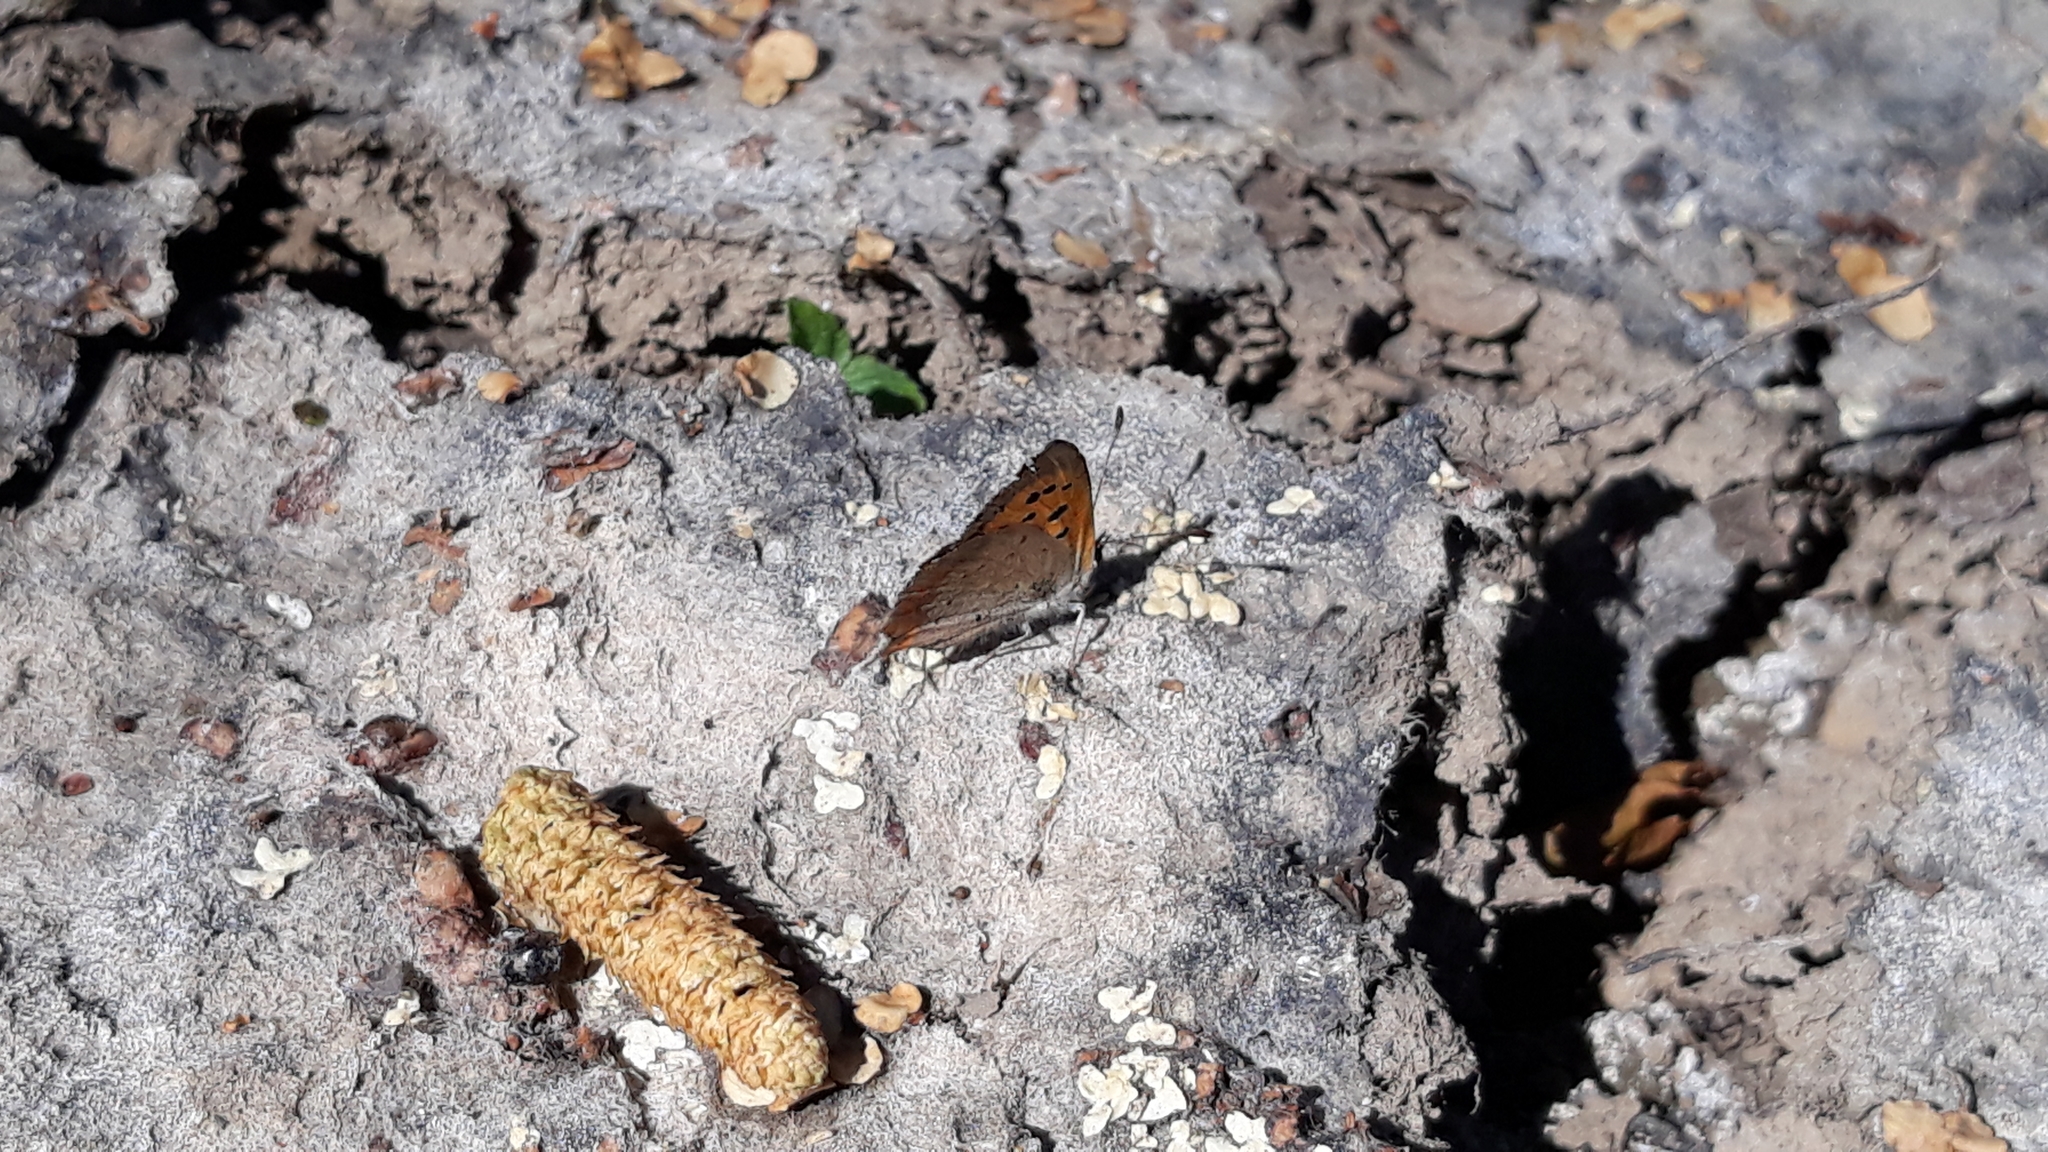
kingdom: Animalia
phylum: Arthropoda
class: Insecta
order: Lepidoptera
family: Lycaenidae
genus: Lycaena
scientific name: Lycaena phlaeas
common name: Small copper
